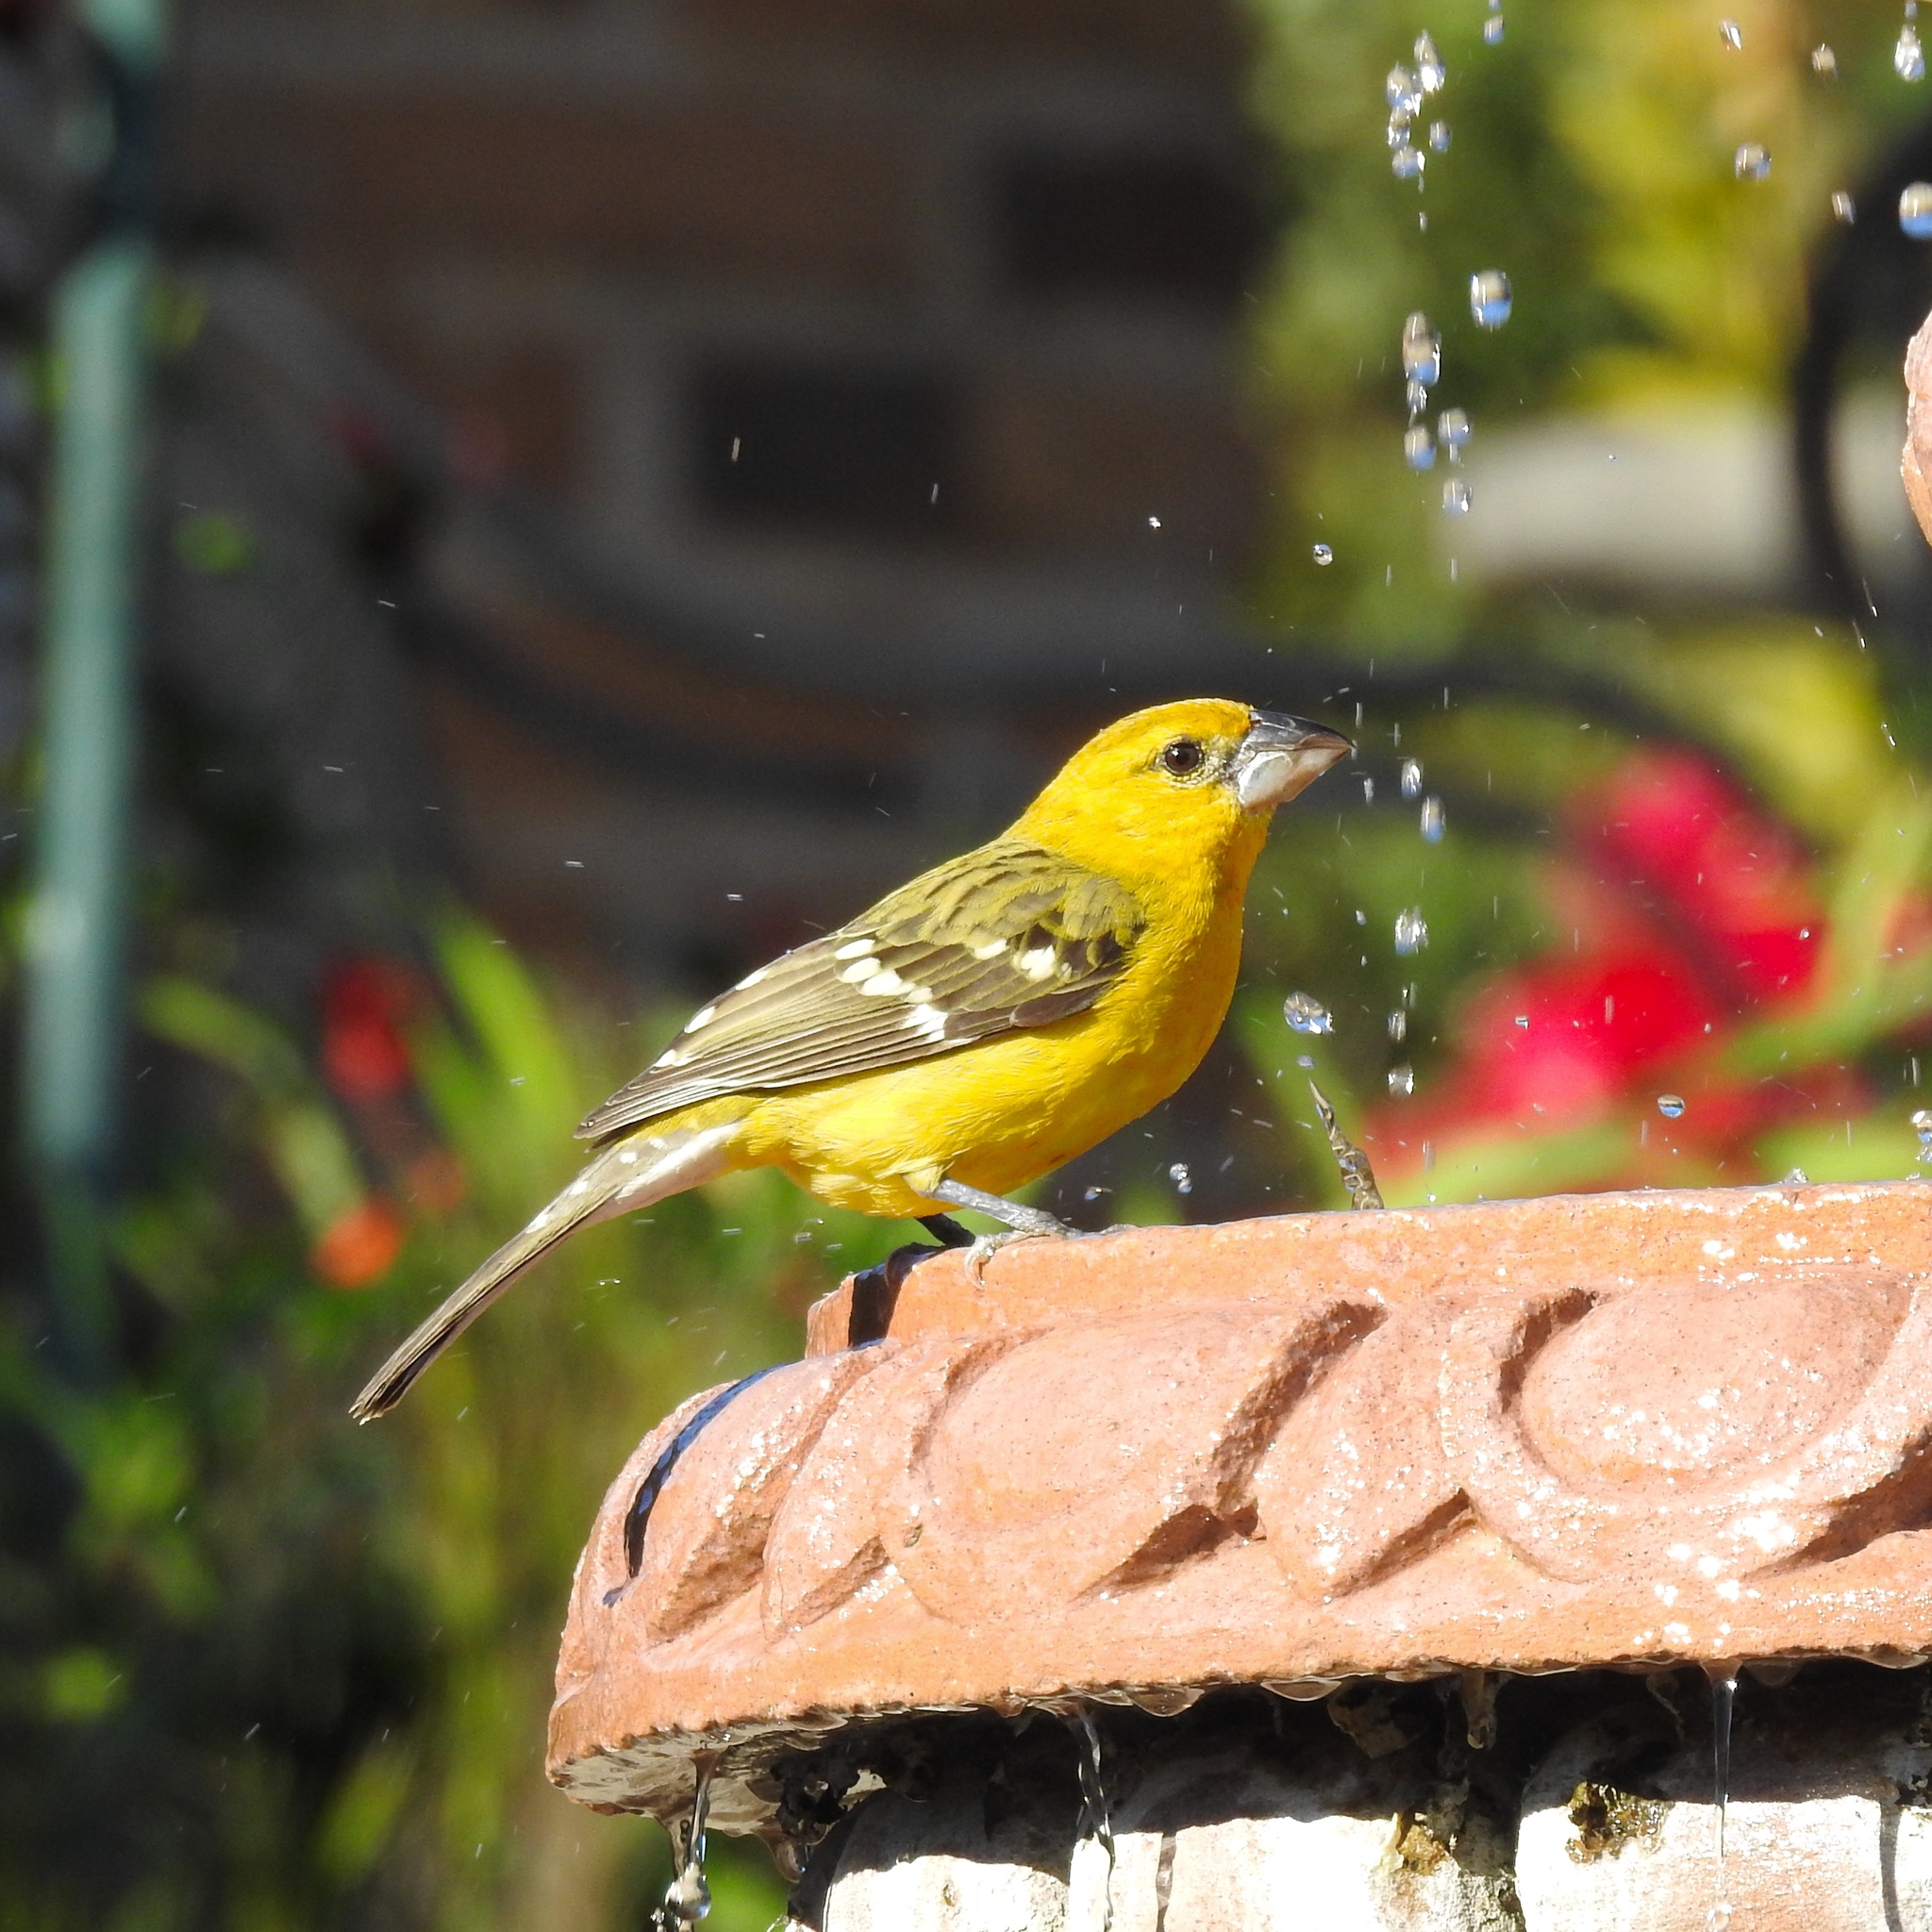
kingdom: Animalia
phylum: Chordata
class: Aves
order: Passeriformes
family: Cardinalidae
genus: Pheucticus
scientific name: Pheucticus chrysopeplus
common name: Yellow grosbeak
